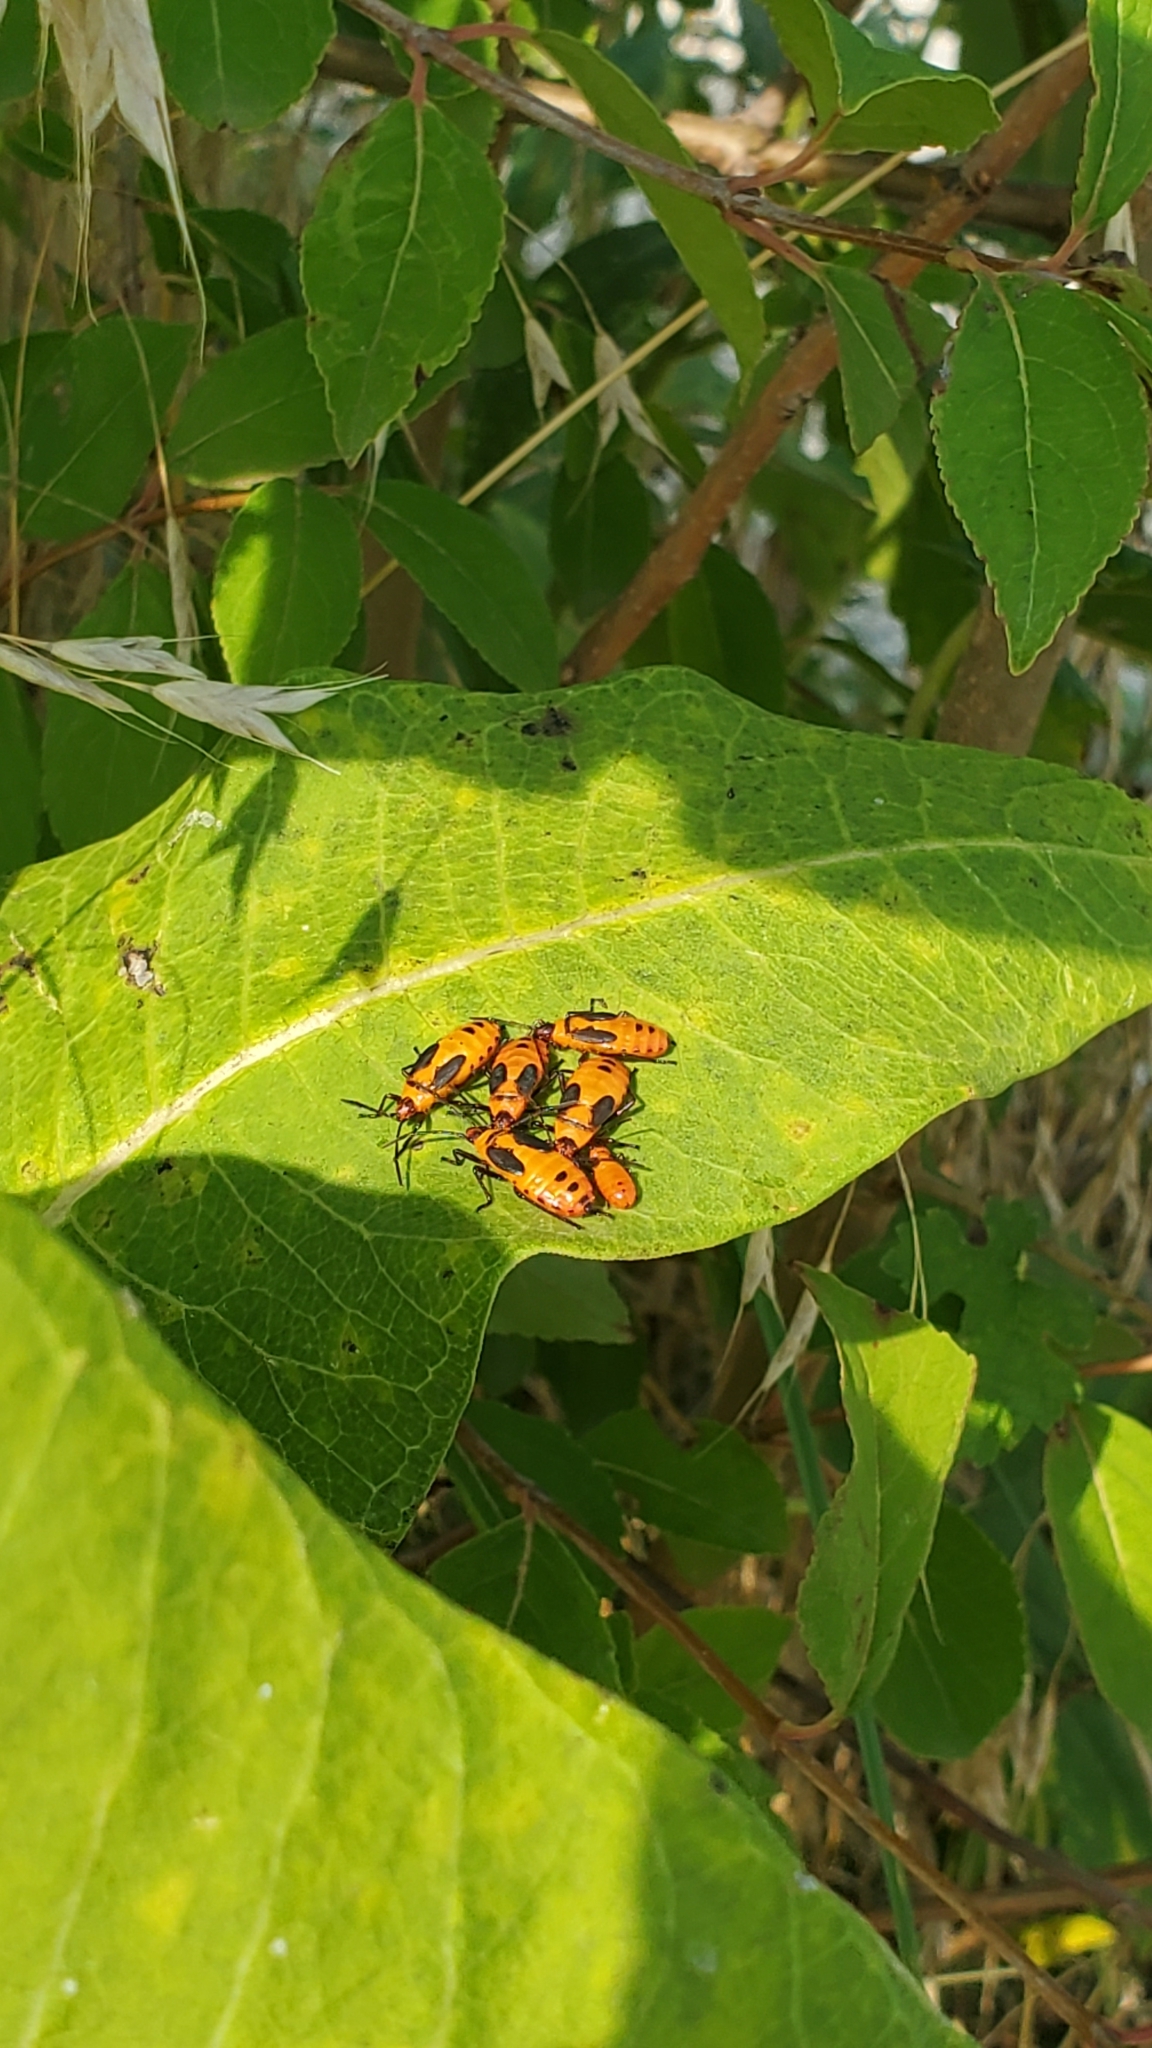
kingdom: Animalia
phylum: Arthropoda
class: Insecta
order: Hemiptera
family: Lygaeidae
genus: Oncopeltus
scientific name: Oncopeltus fasciatus
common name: Large milkweed bug
